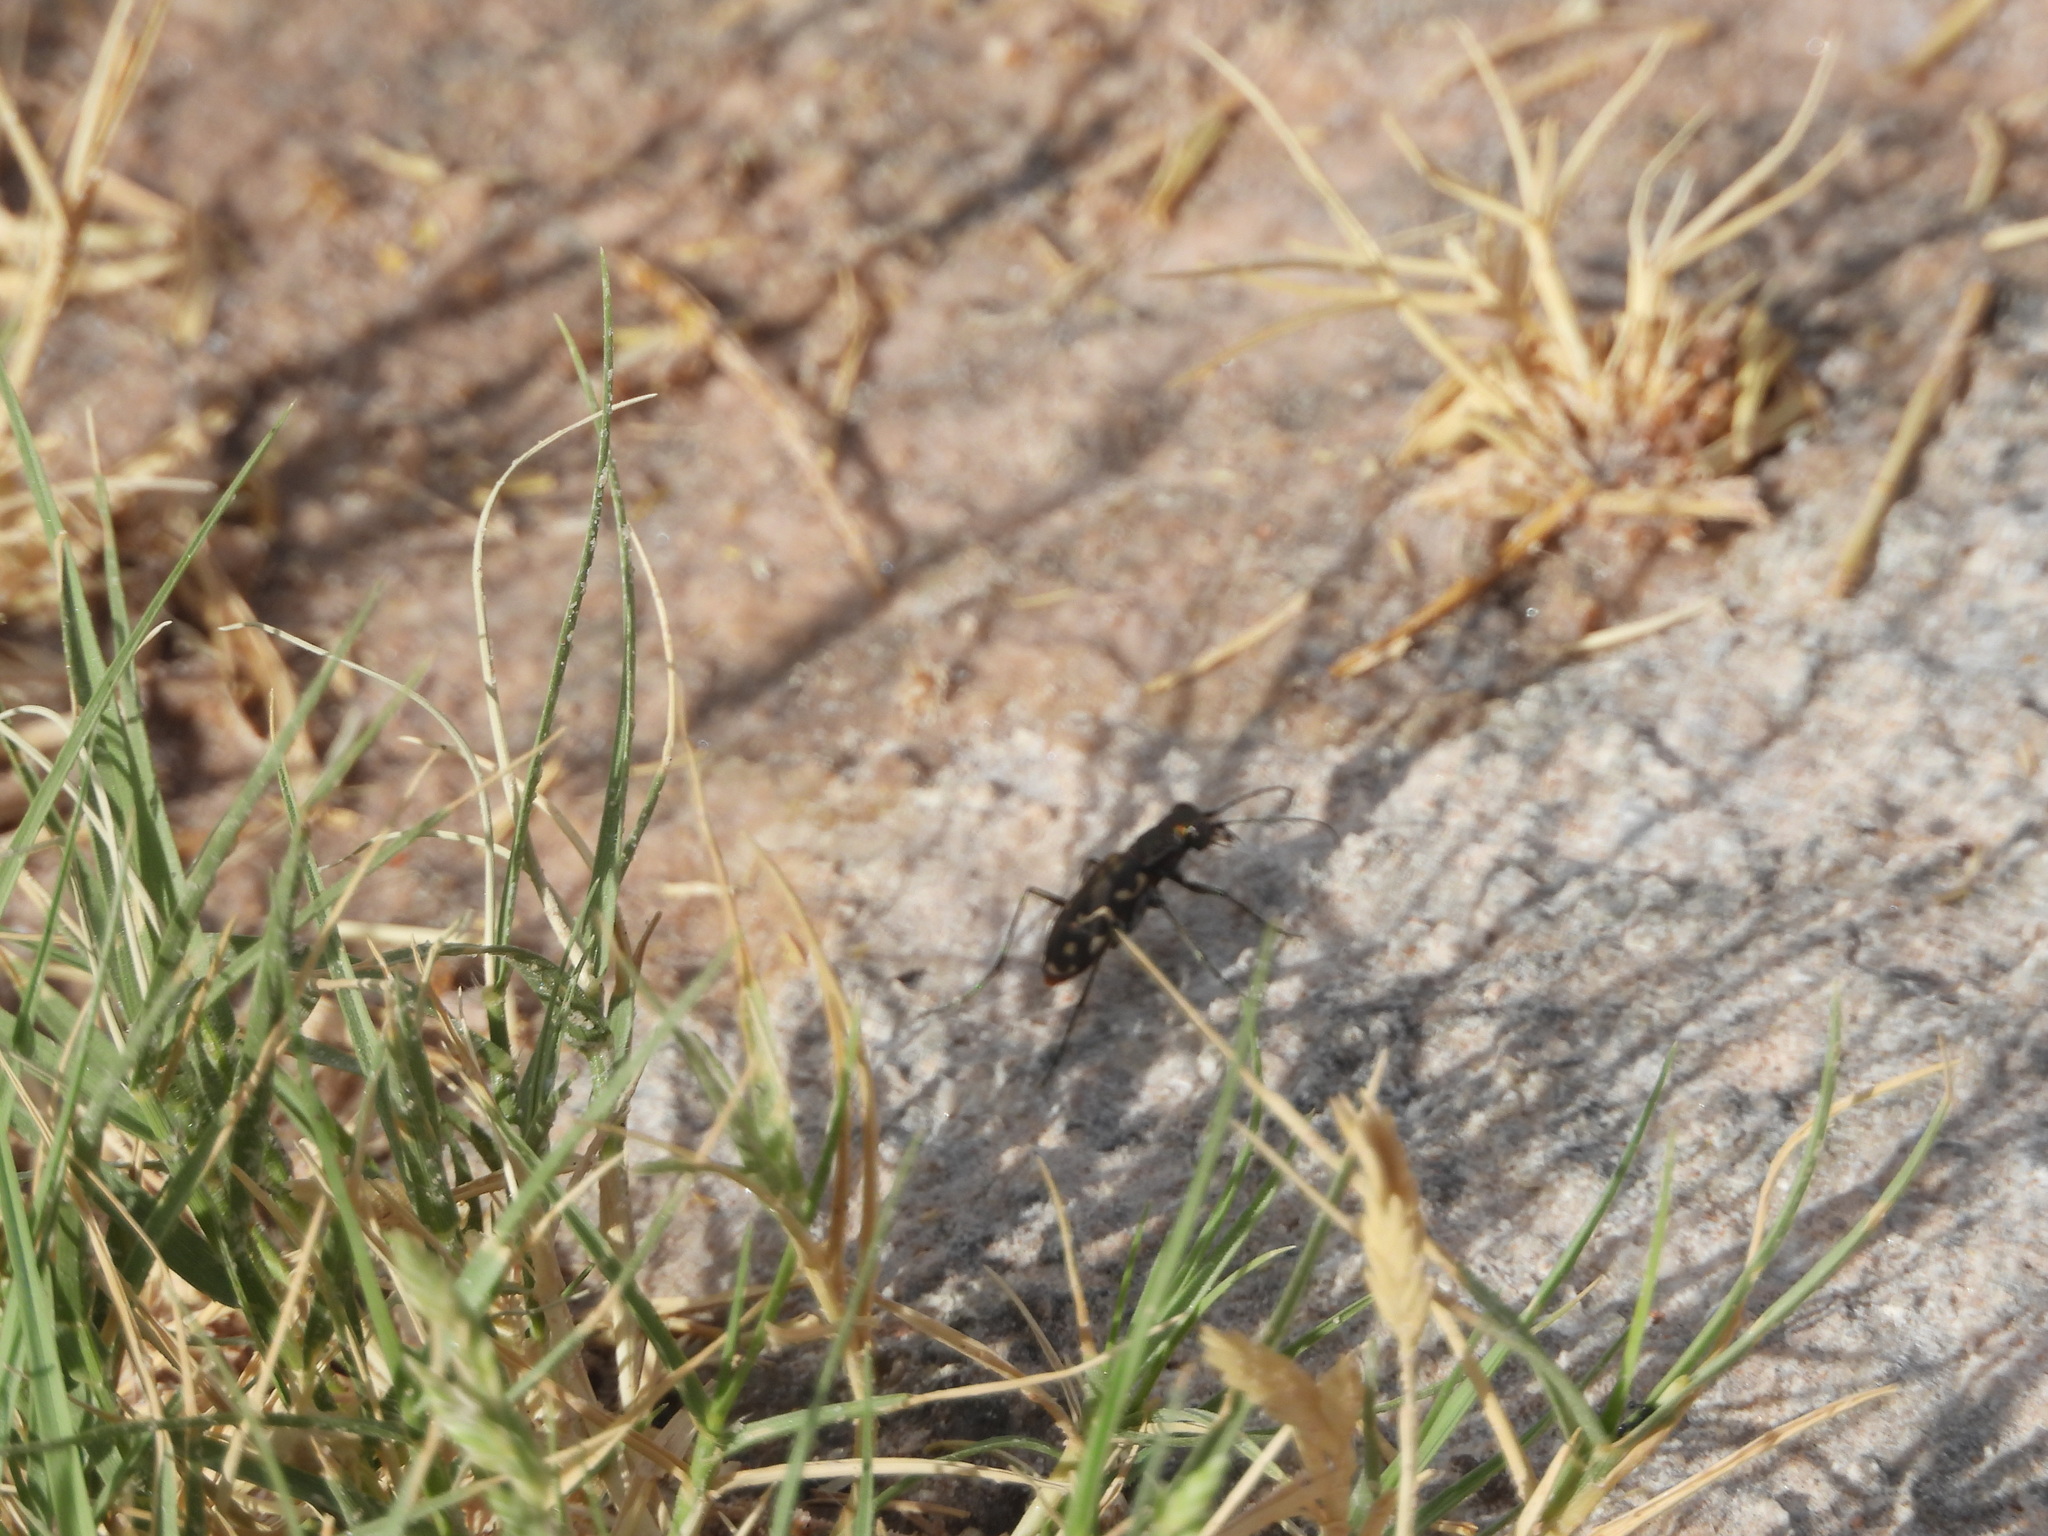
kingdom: Animalia
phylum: Arthropoda
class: Insecta
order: Coleoptera
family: Carabidae
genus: Cicindela
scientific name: Cicindela sedecimpunctata
